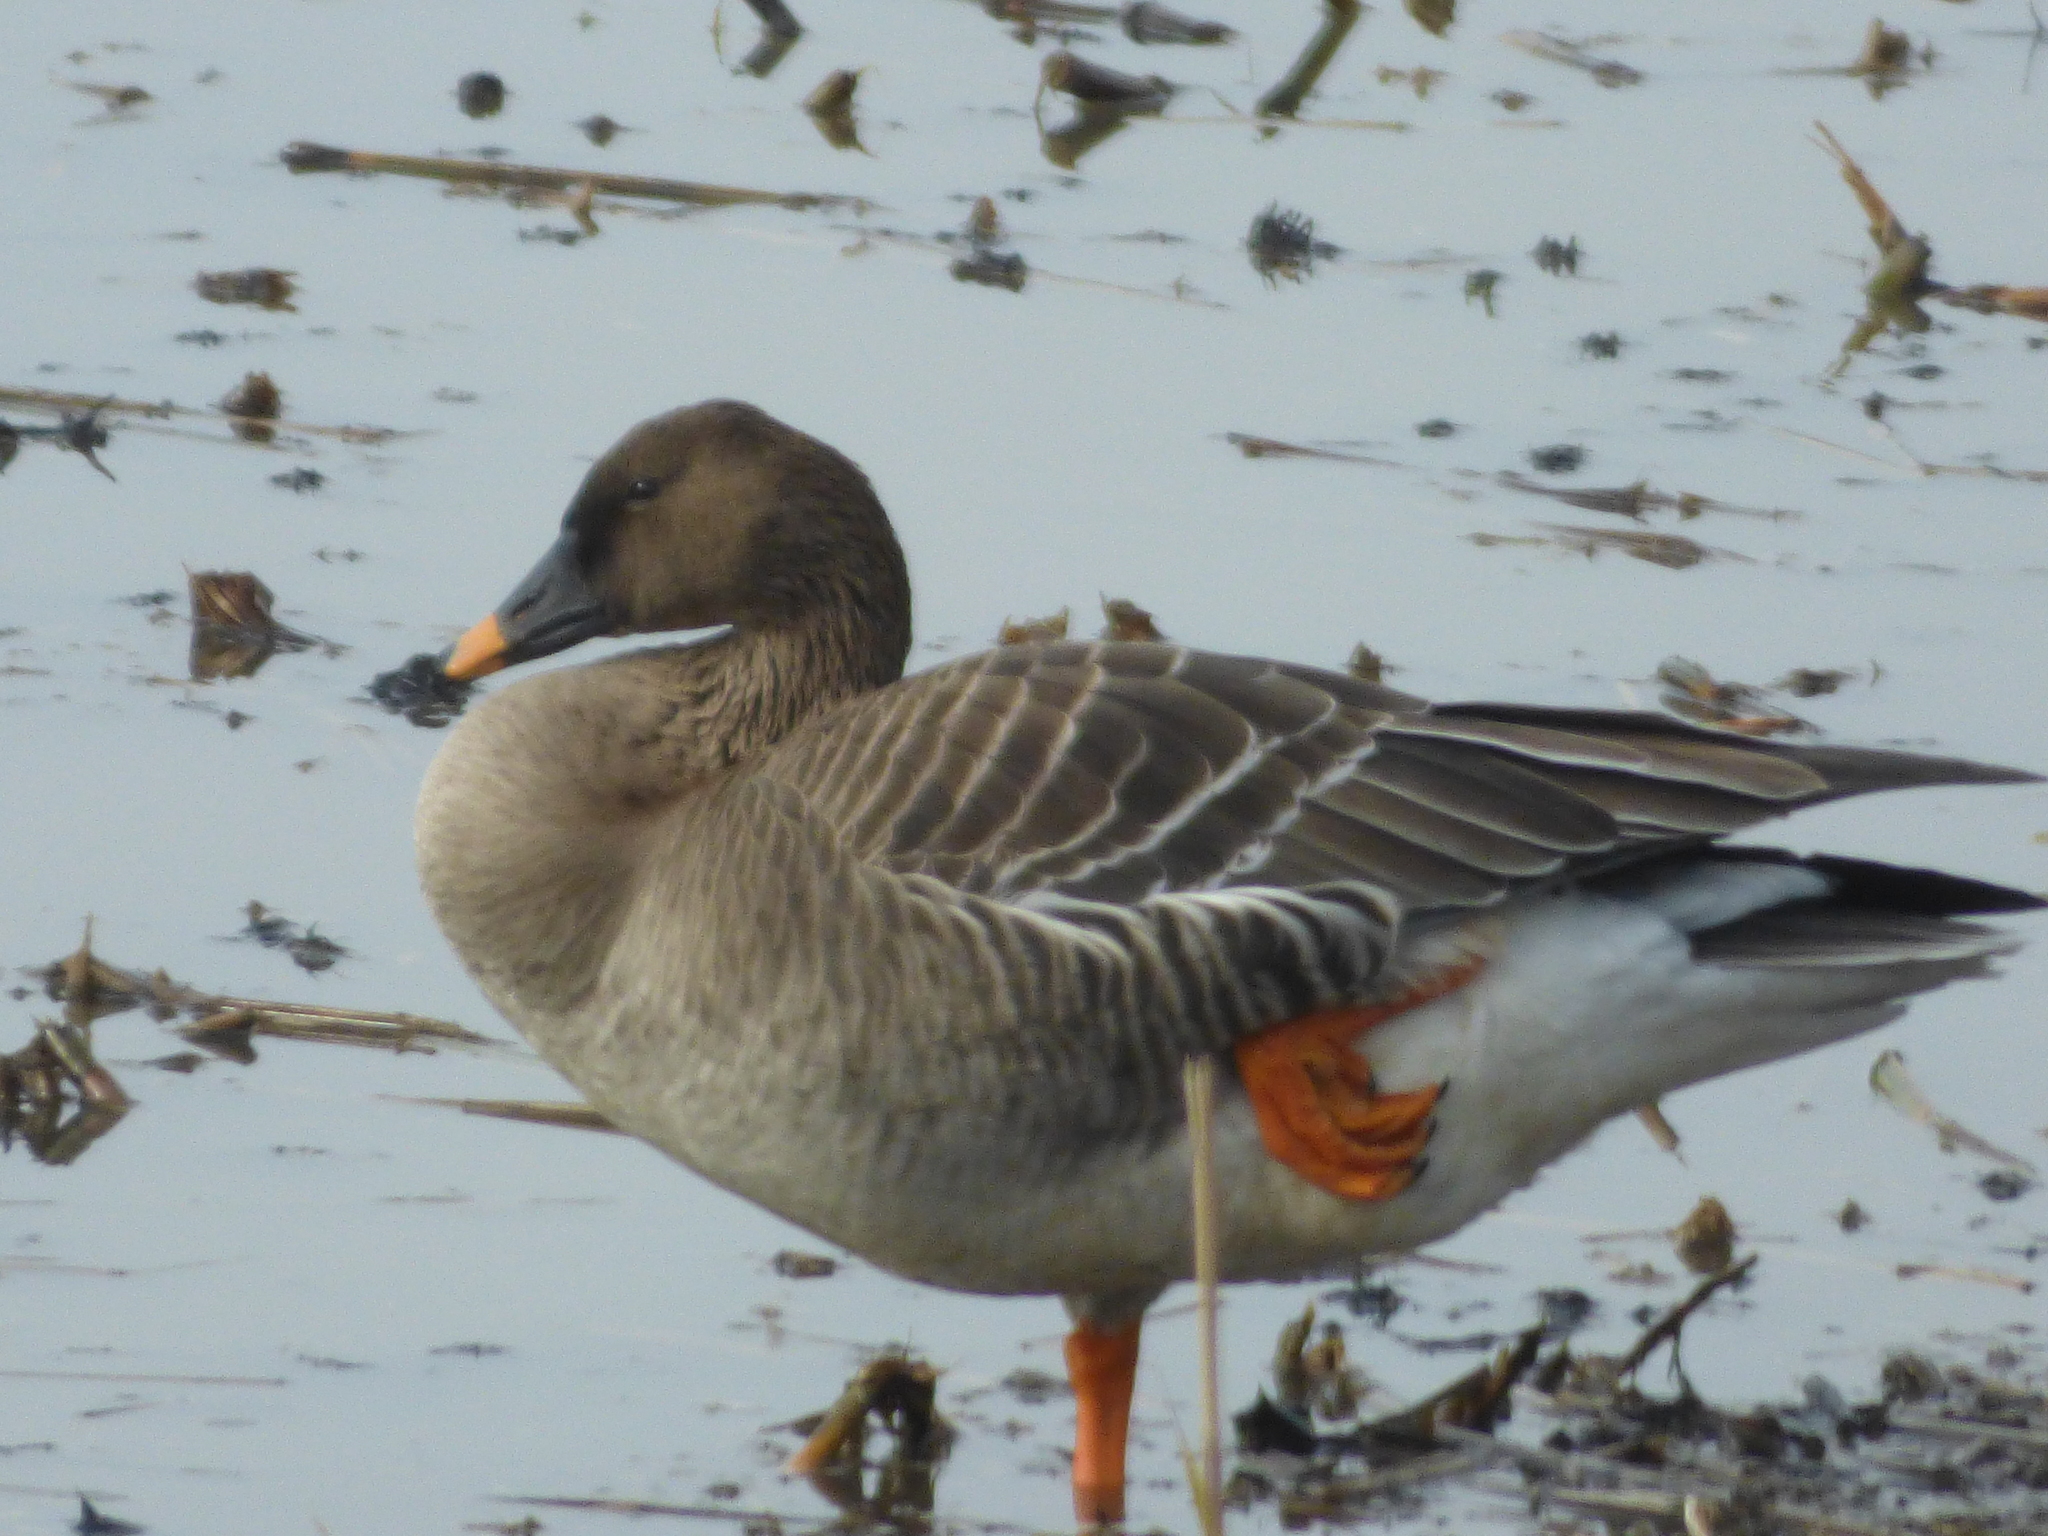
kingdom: Animalia
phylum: Chordata
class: Aves
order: Anseriformes
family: Anatidae
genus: Anser
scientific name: Anser fabalis
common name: Bean goose
